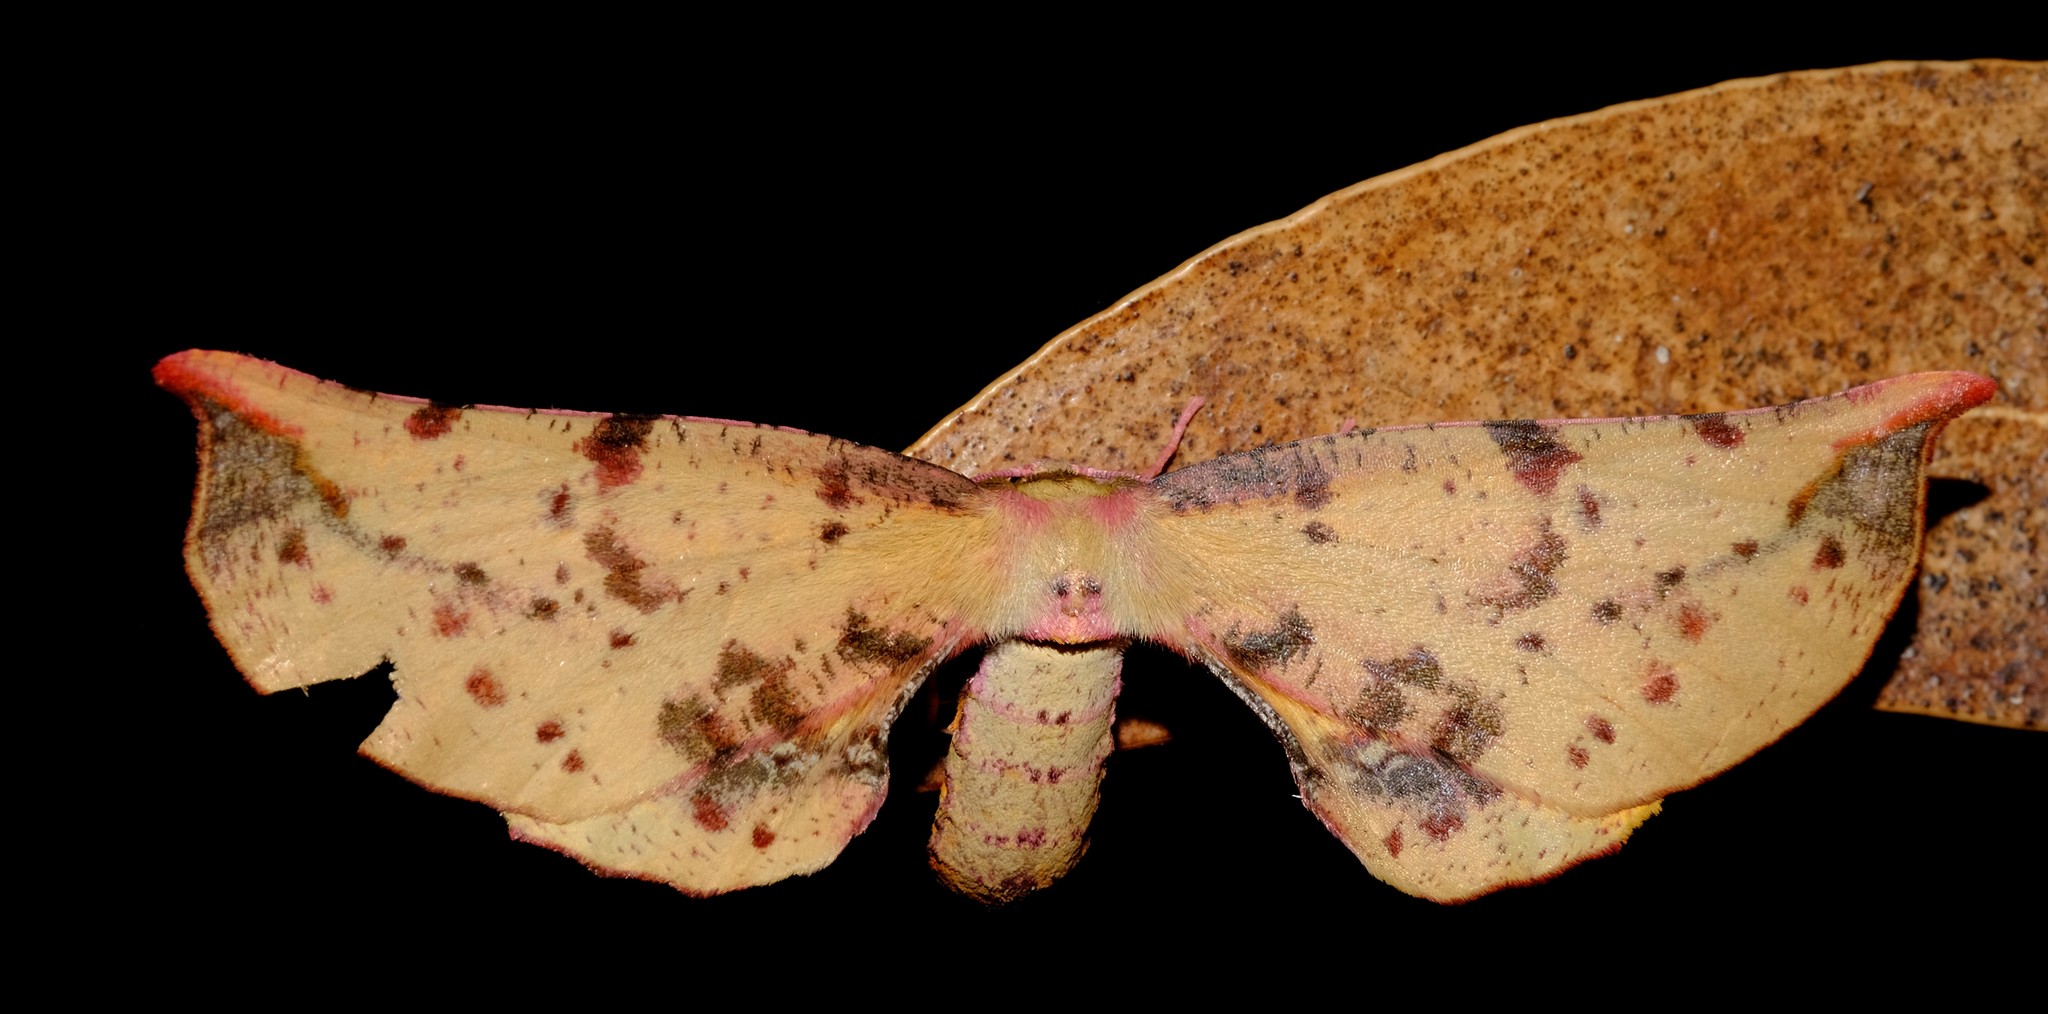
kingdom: Animalia
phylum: Arthropoda
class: Insecta
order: Lepidoptera
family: Geometridae
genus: Parepisparis
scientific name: Parepisparis lutosaria
